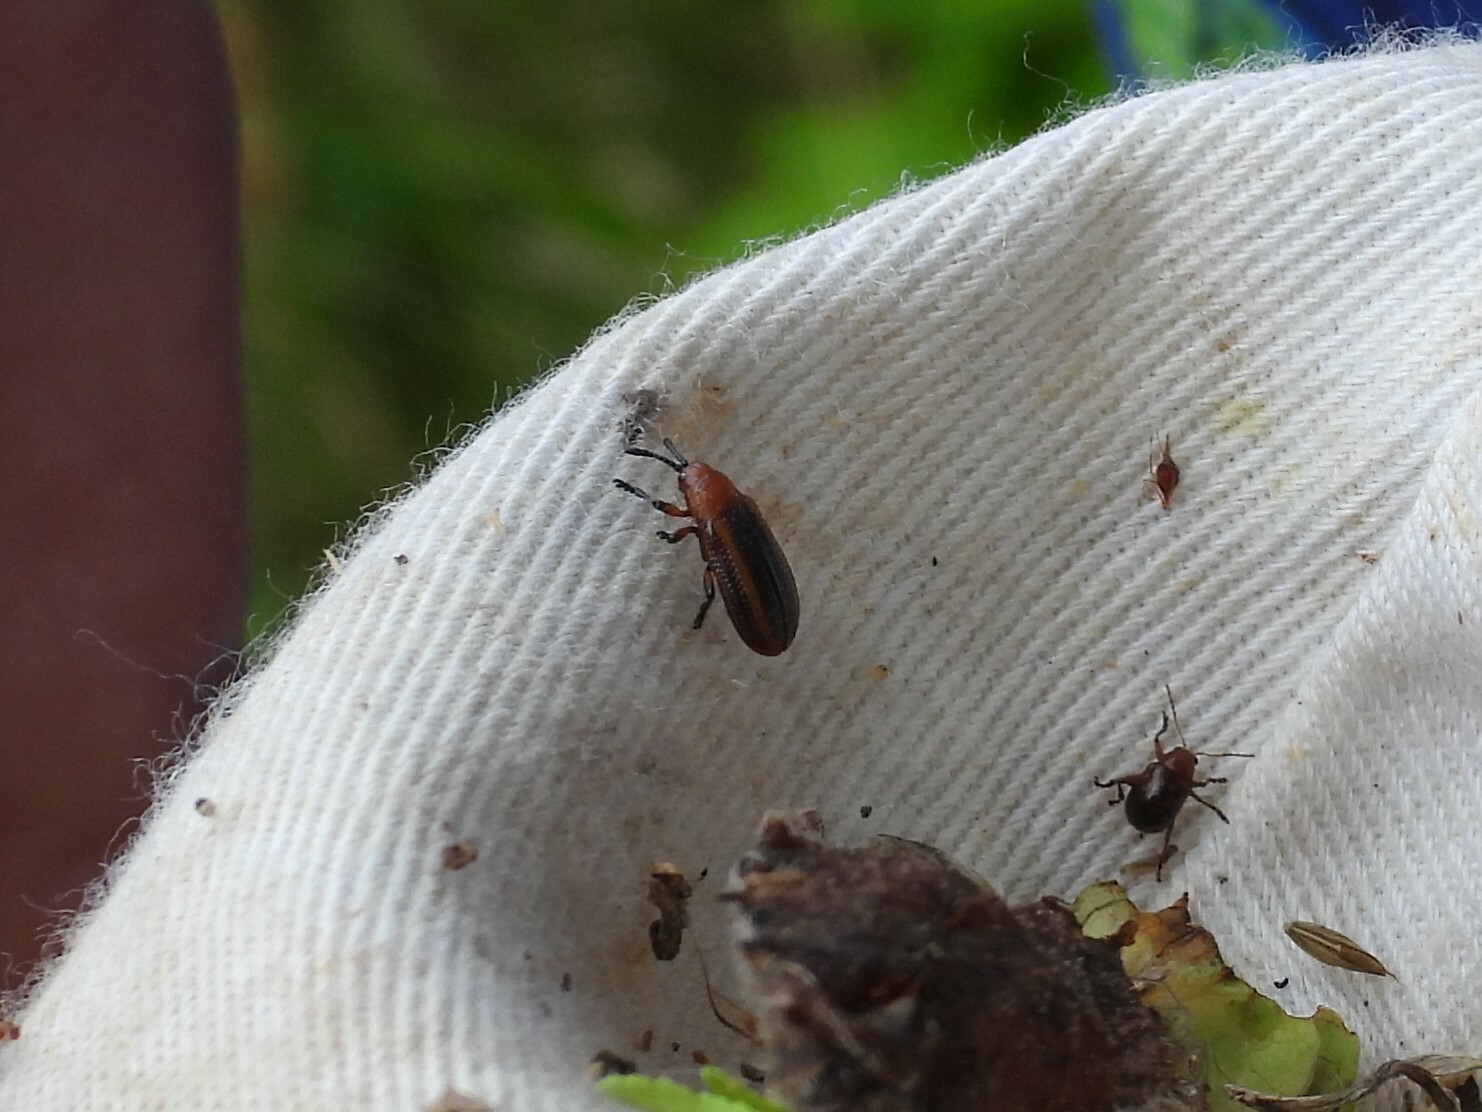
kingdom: Animalia
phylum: Arthropoda
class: Insecta
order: Coleoptera
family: Chrysomelidae
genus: Microrhopala
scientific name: Microrhopala vittata
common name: Goldenrod leaf miner beetle
